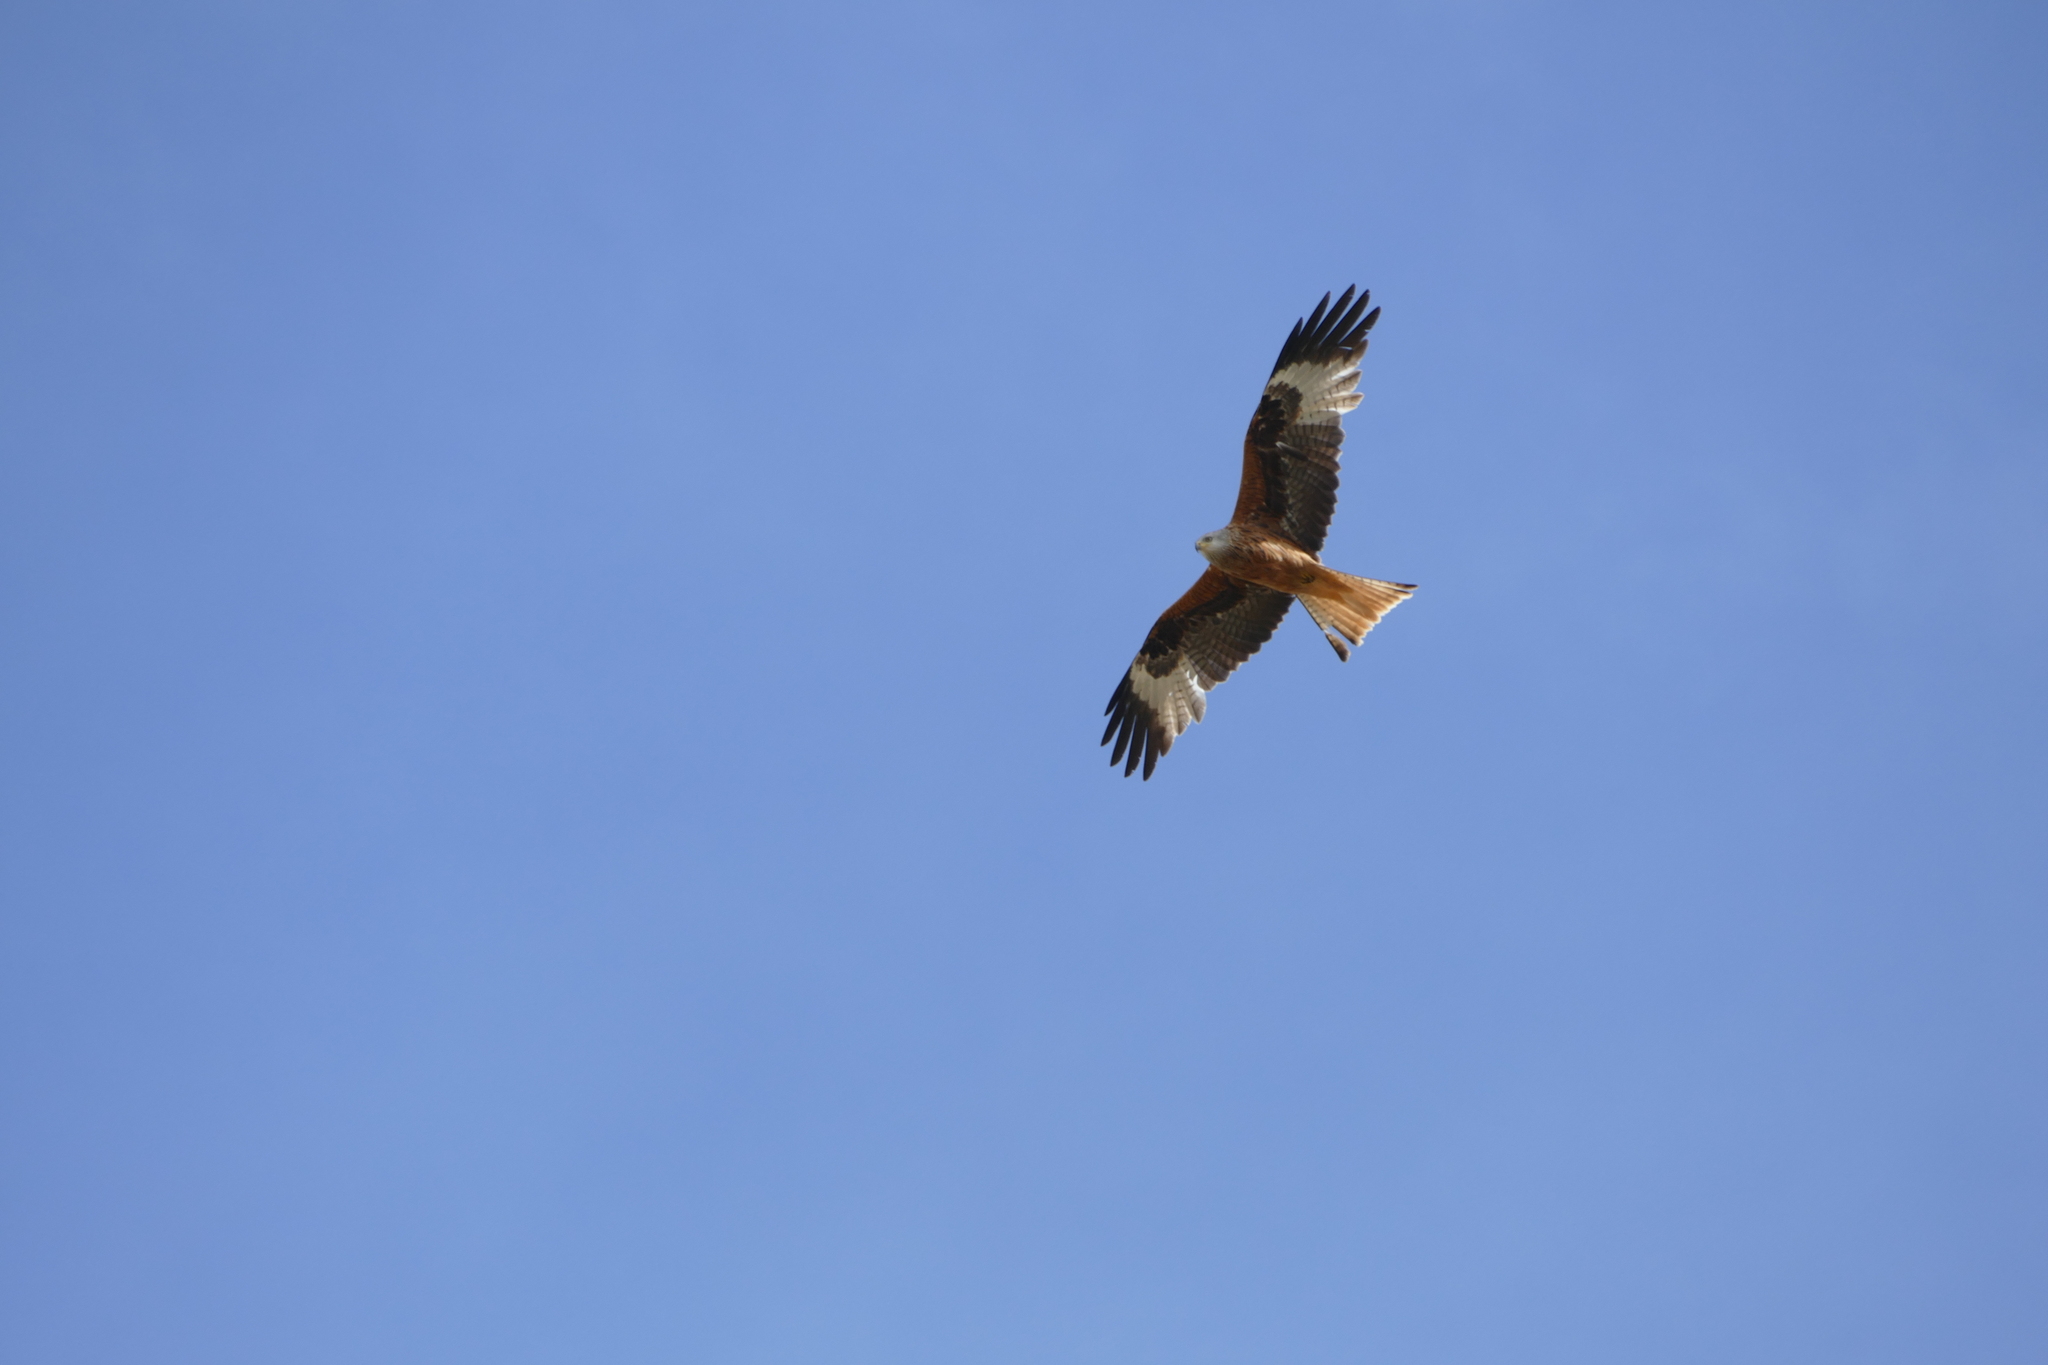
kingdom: Animalia
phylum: Chordata
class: Aves
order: Accipitriformes
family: Accipitridae
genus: Milvus
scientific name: Milvus milvus
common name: Red kite
